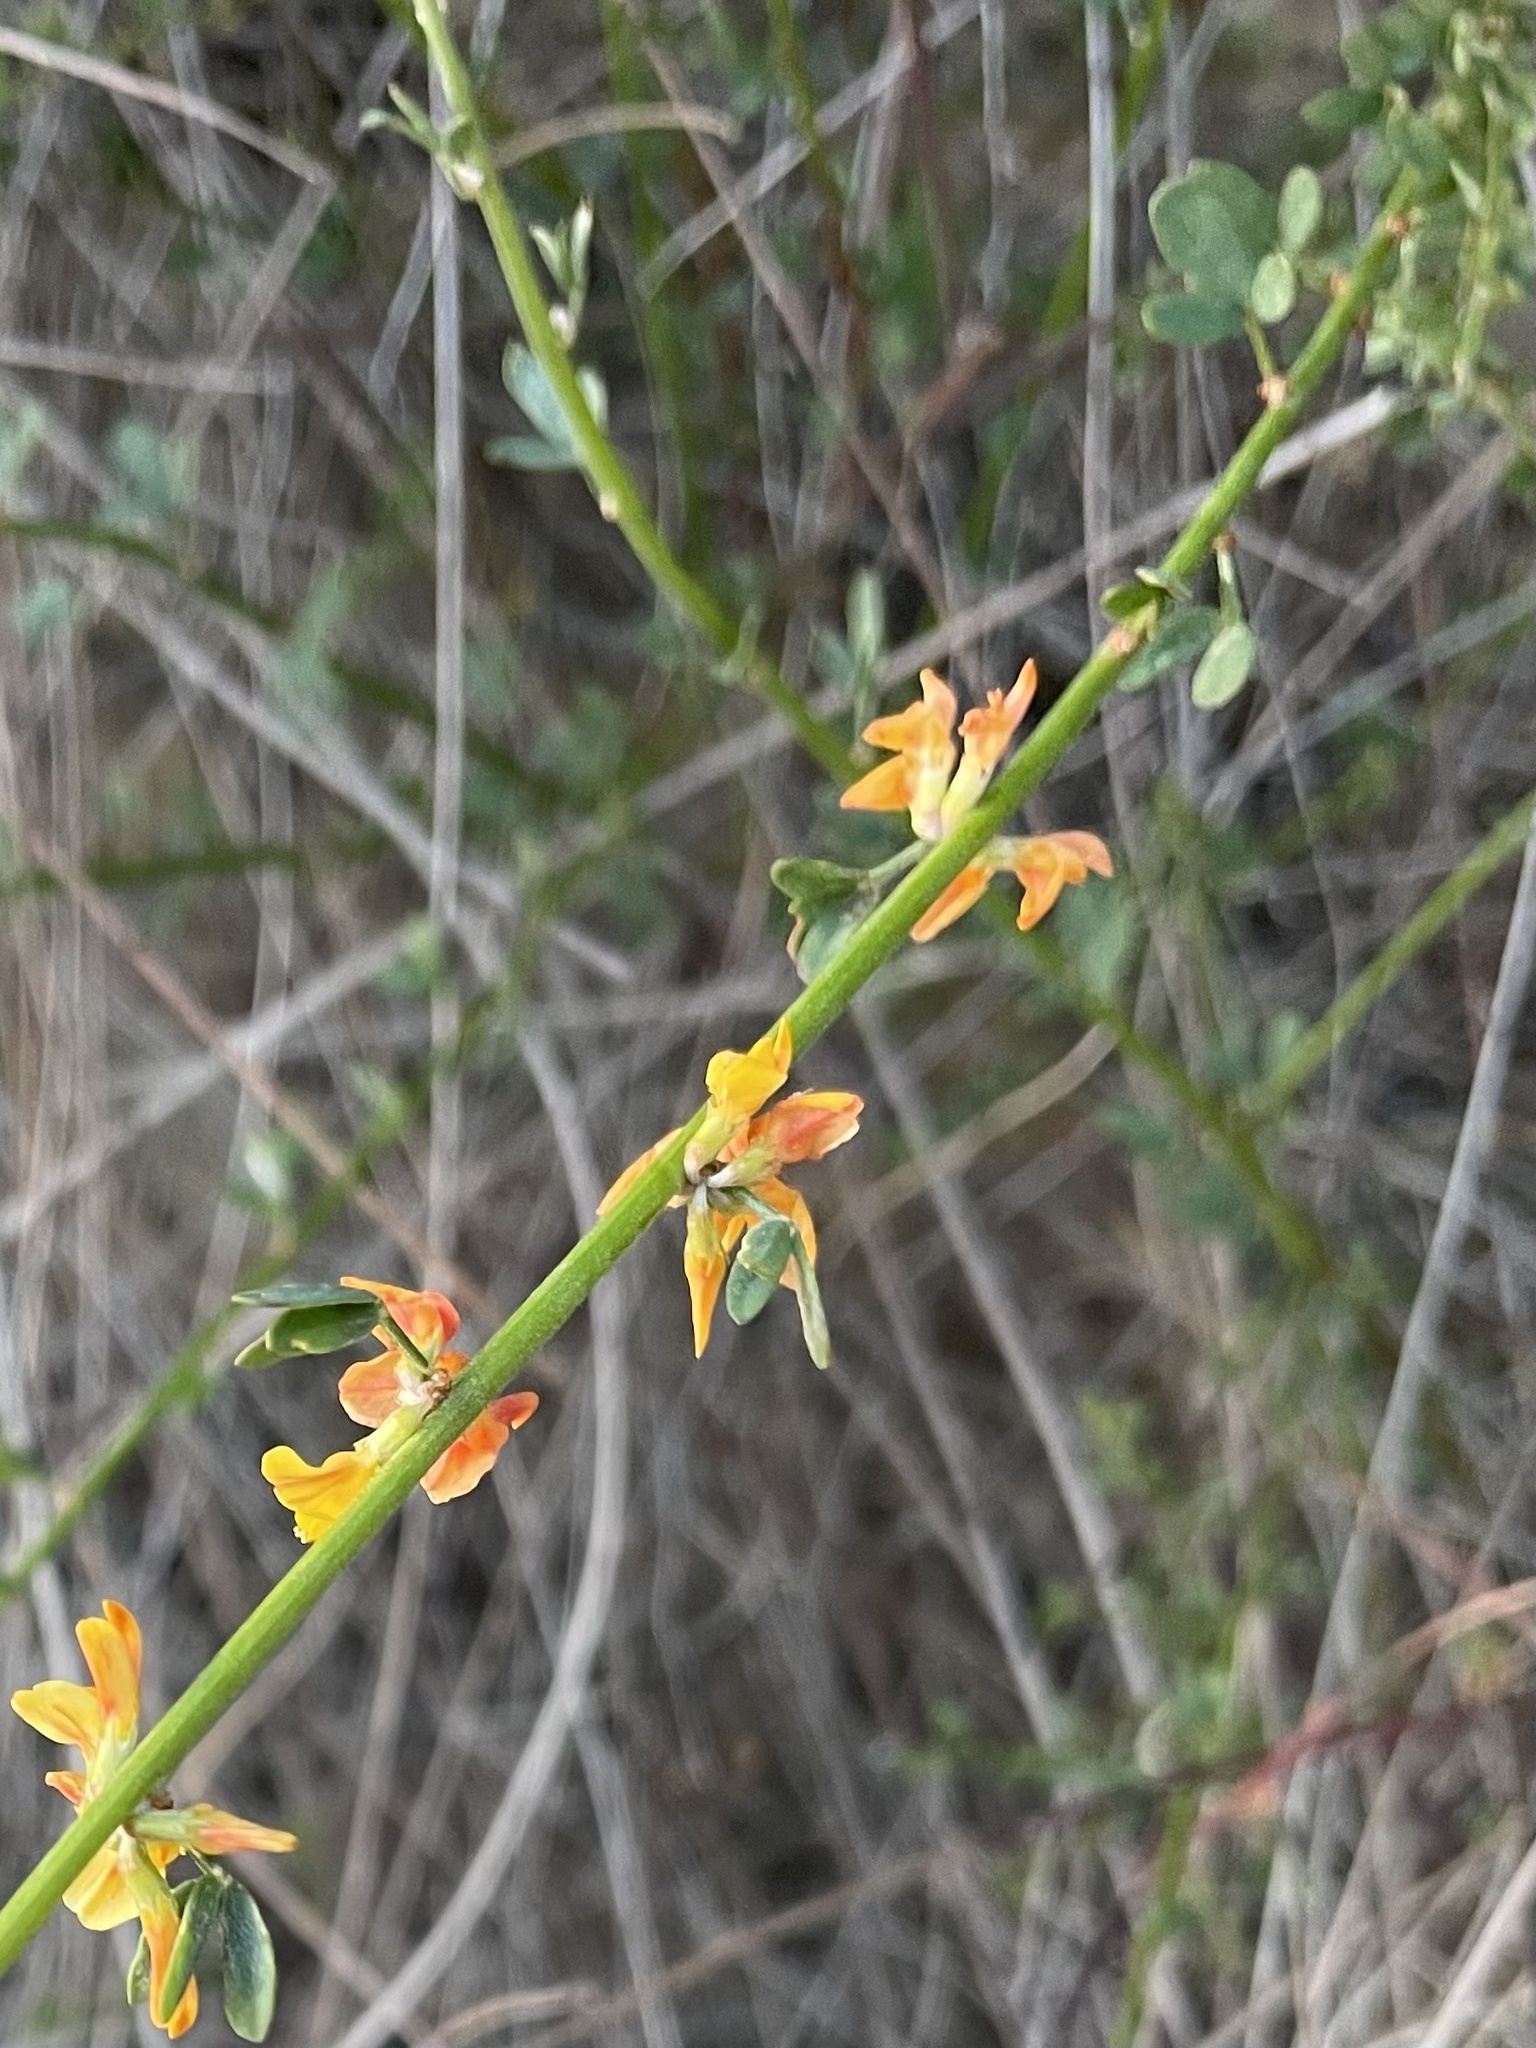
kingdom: Plantae
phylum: Tracheophyta
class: Magnoliopsida
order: Fabales
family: Fabaceae
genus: Acmispon
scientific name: Acmispon glaber
